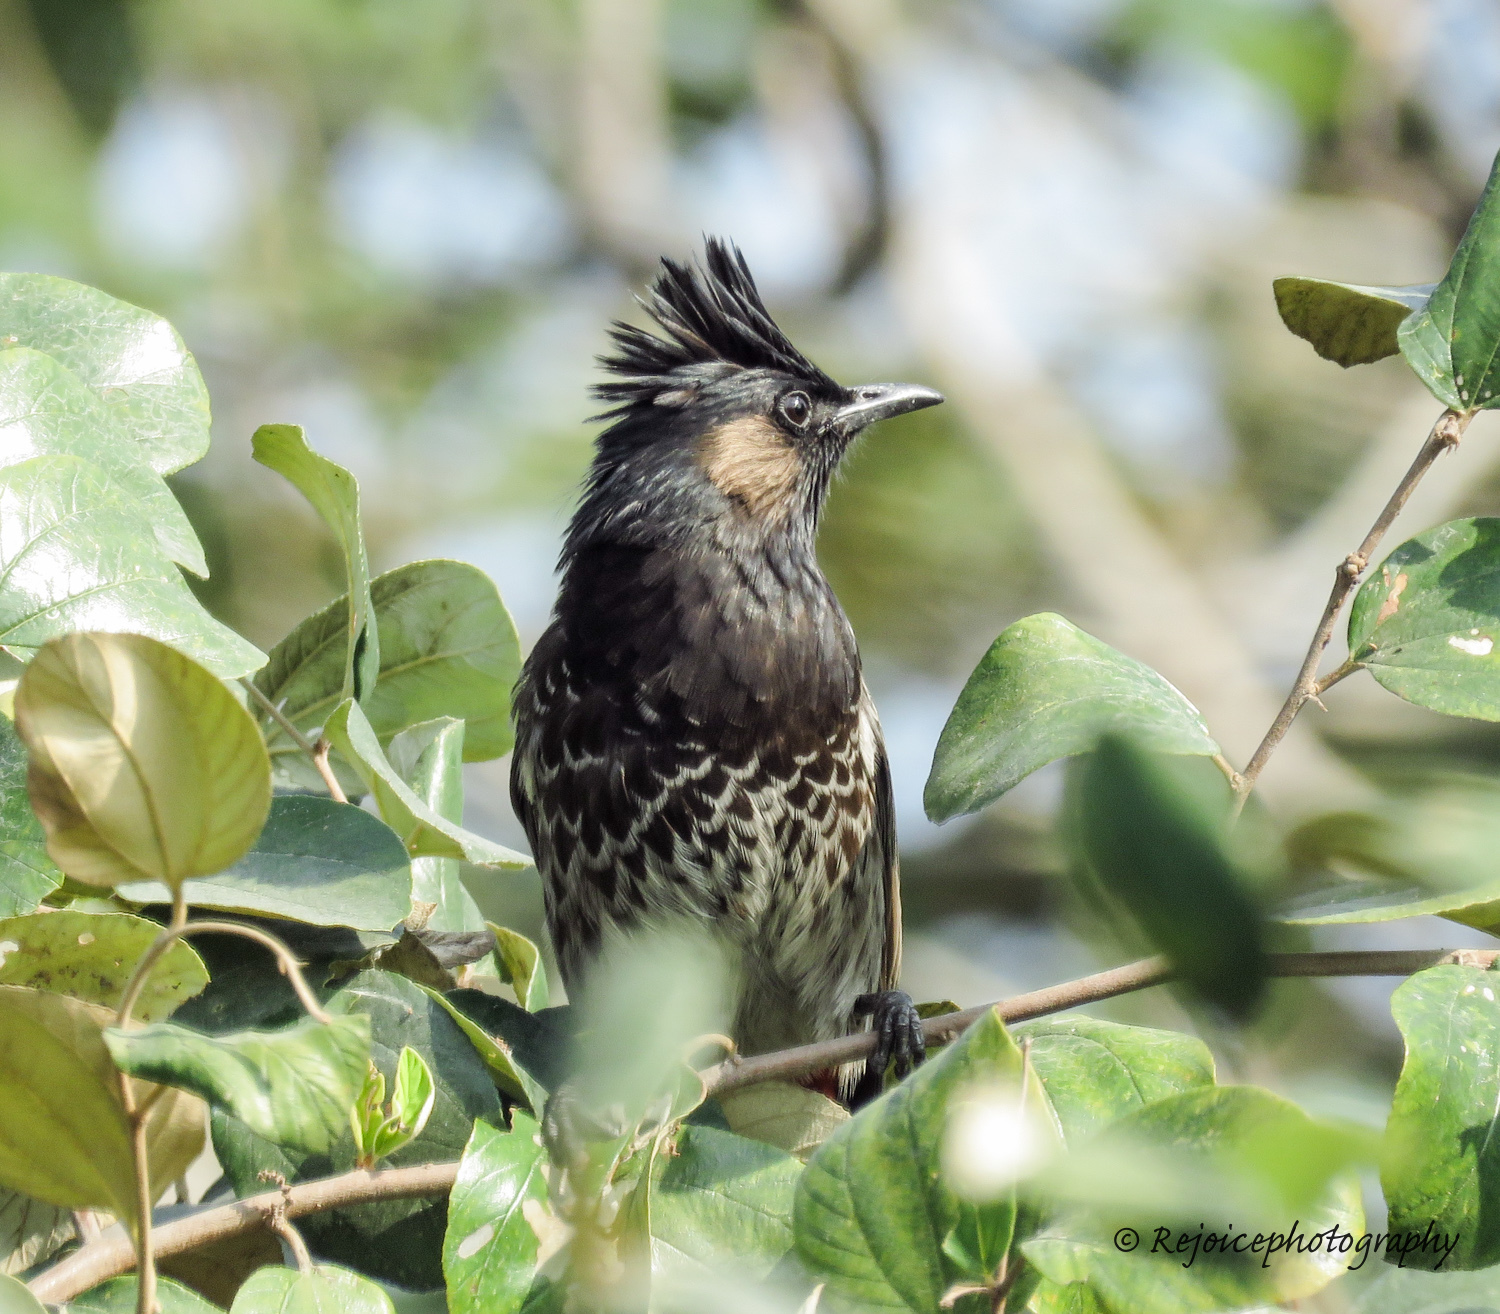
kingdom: Animalia
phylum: Chordata
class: Aves
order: Passeriformes
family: Pycnonotidae
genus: Pycnonotus
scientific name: Pycnonotus cafer
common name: Red-vented bulbul
